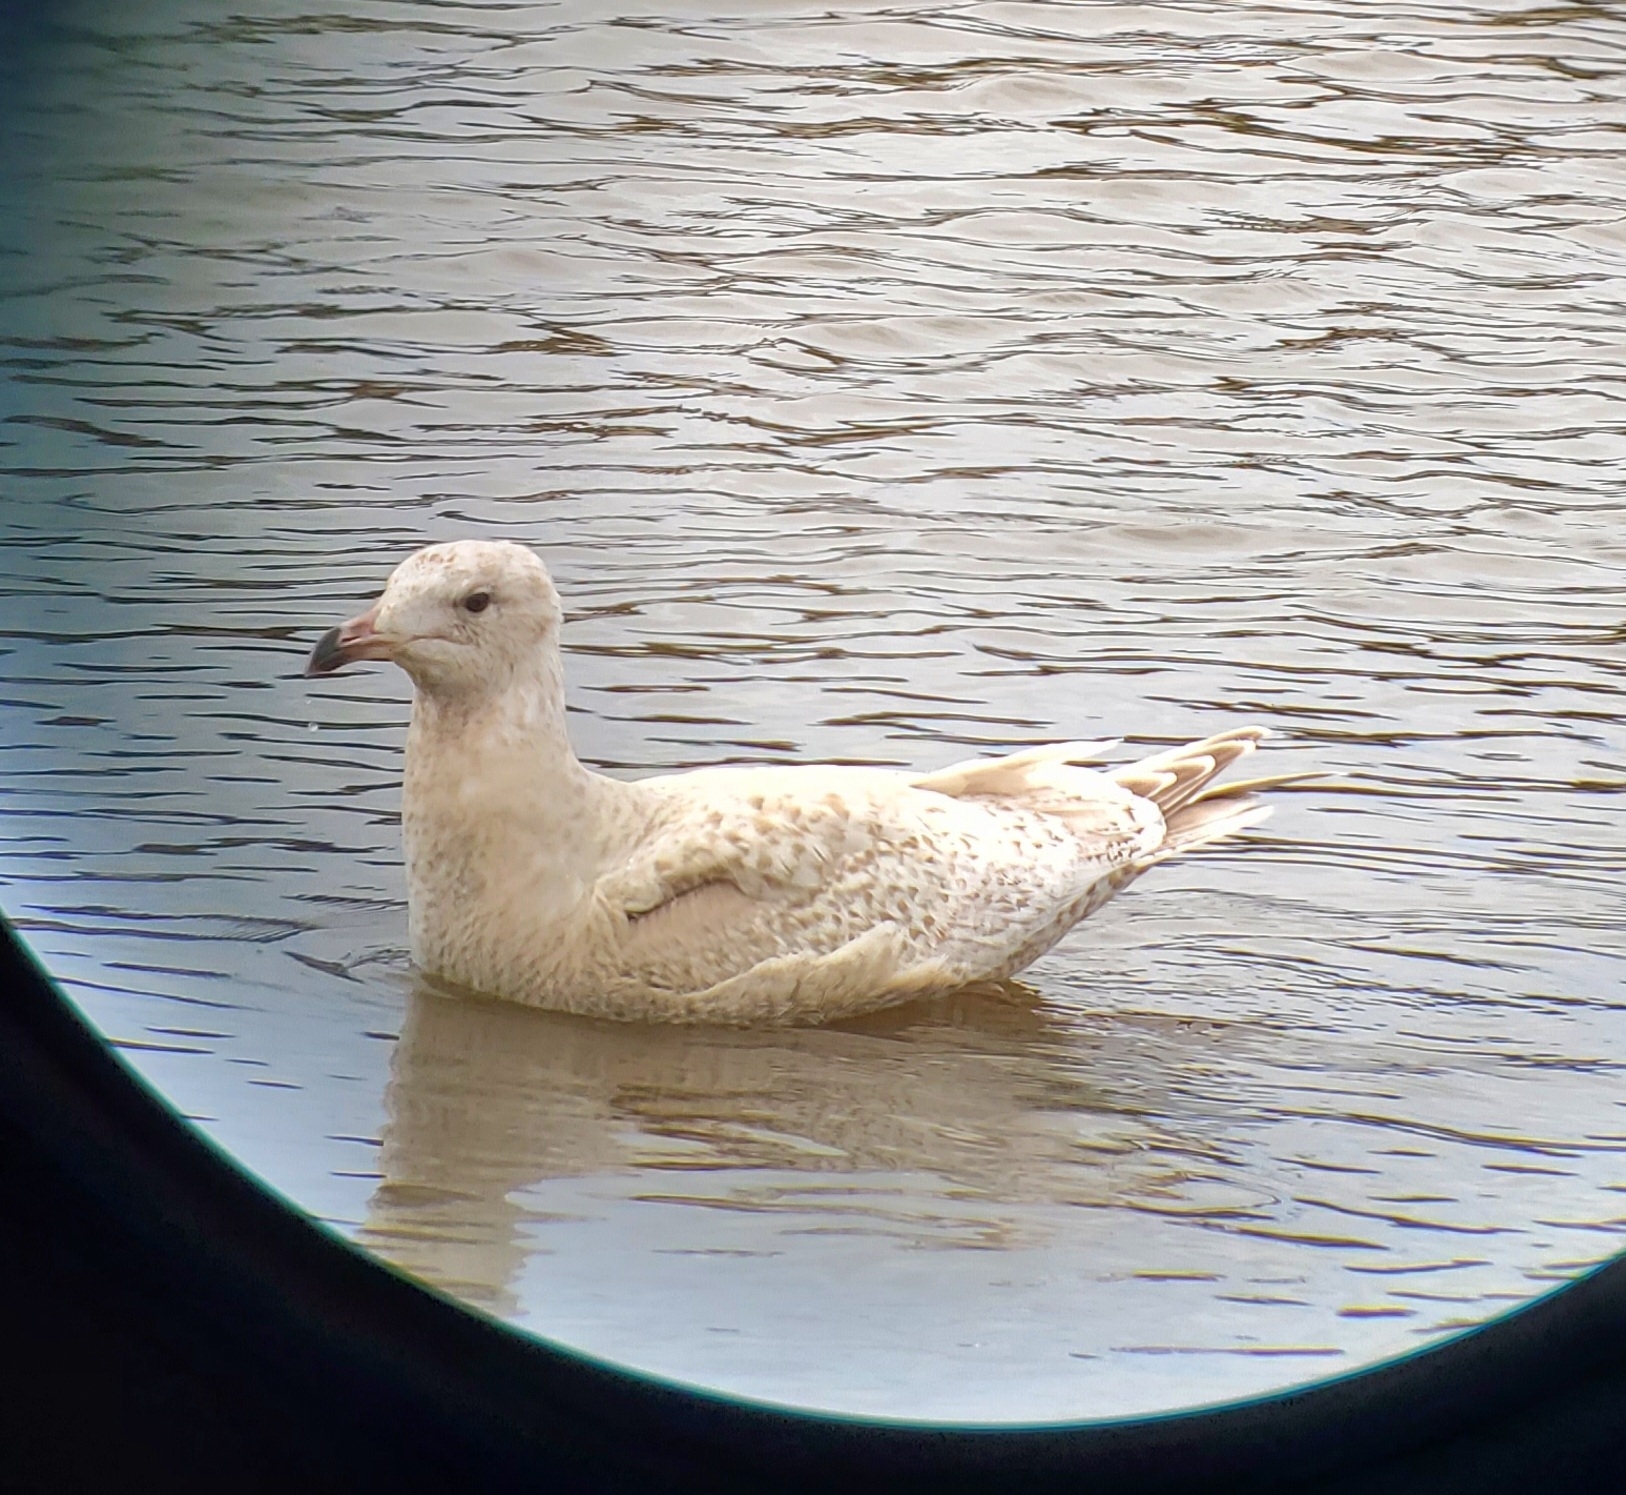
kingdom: Animalia
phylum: Chordata
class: Aves
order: Charadriiformes
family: Laridae
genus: Larus
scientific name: Larus
